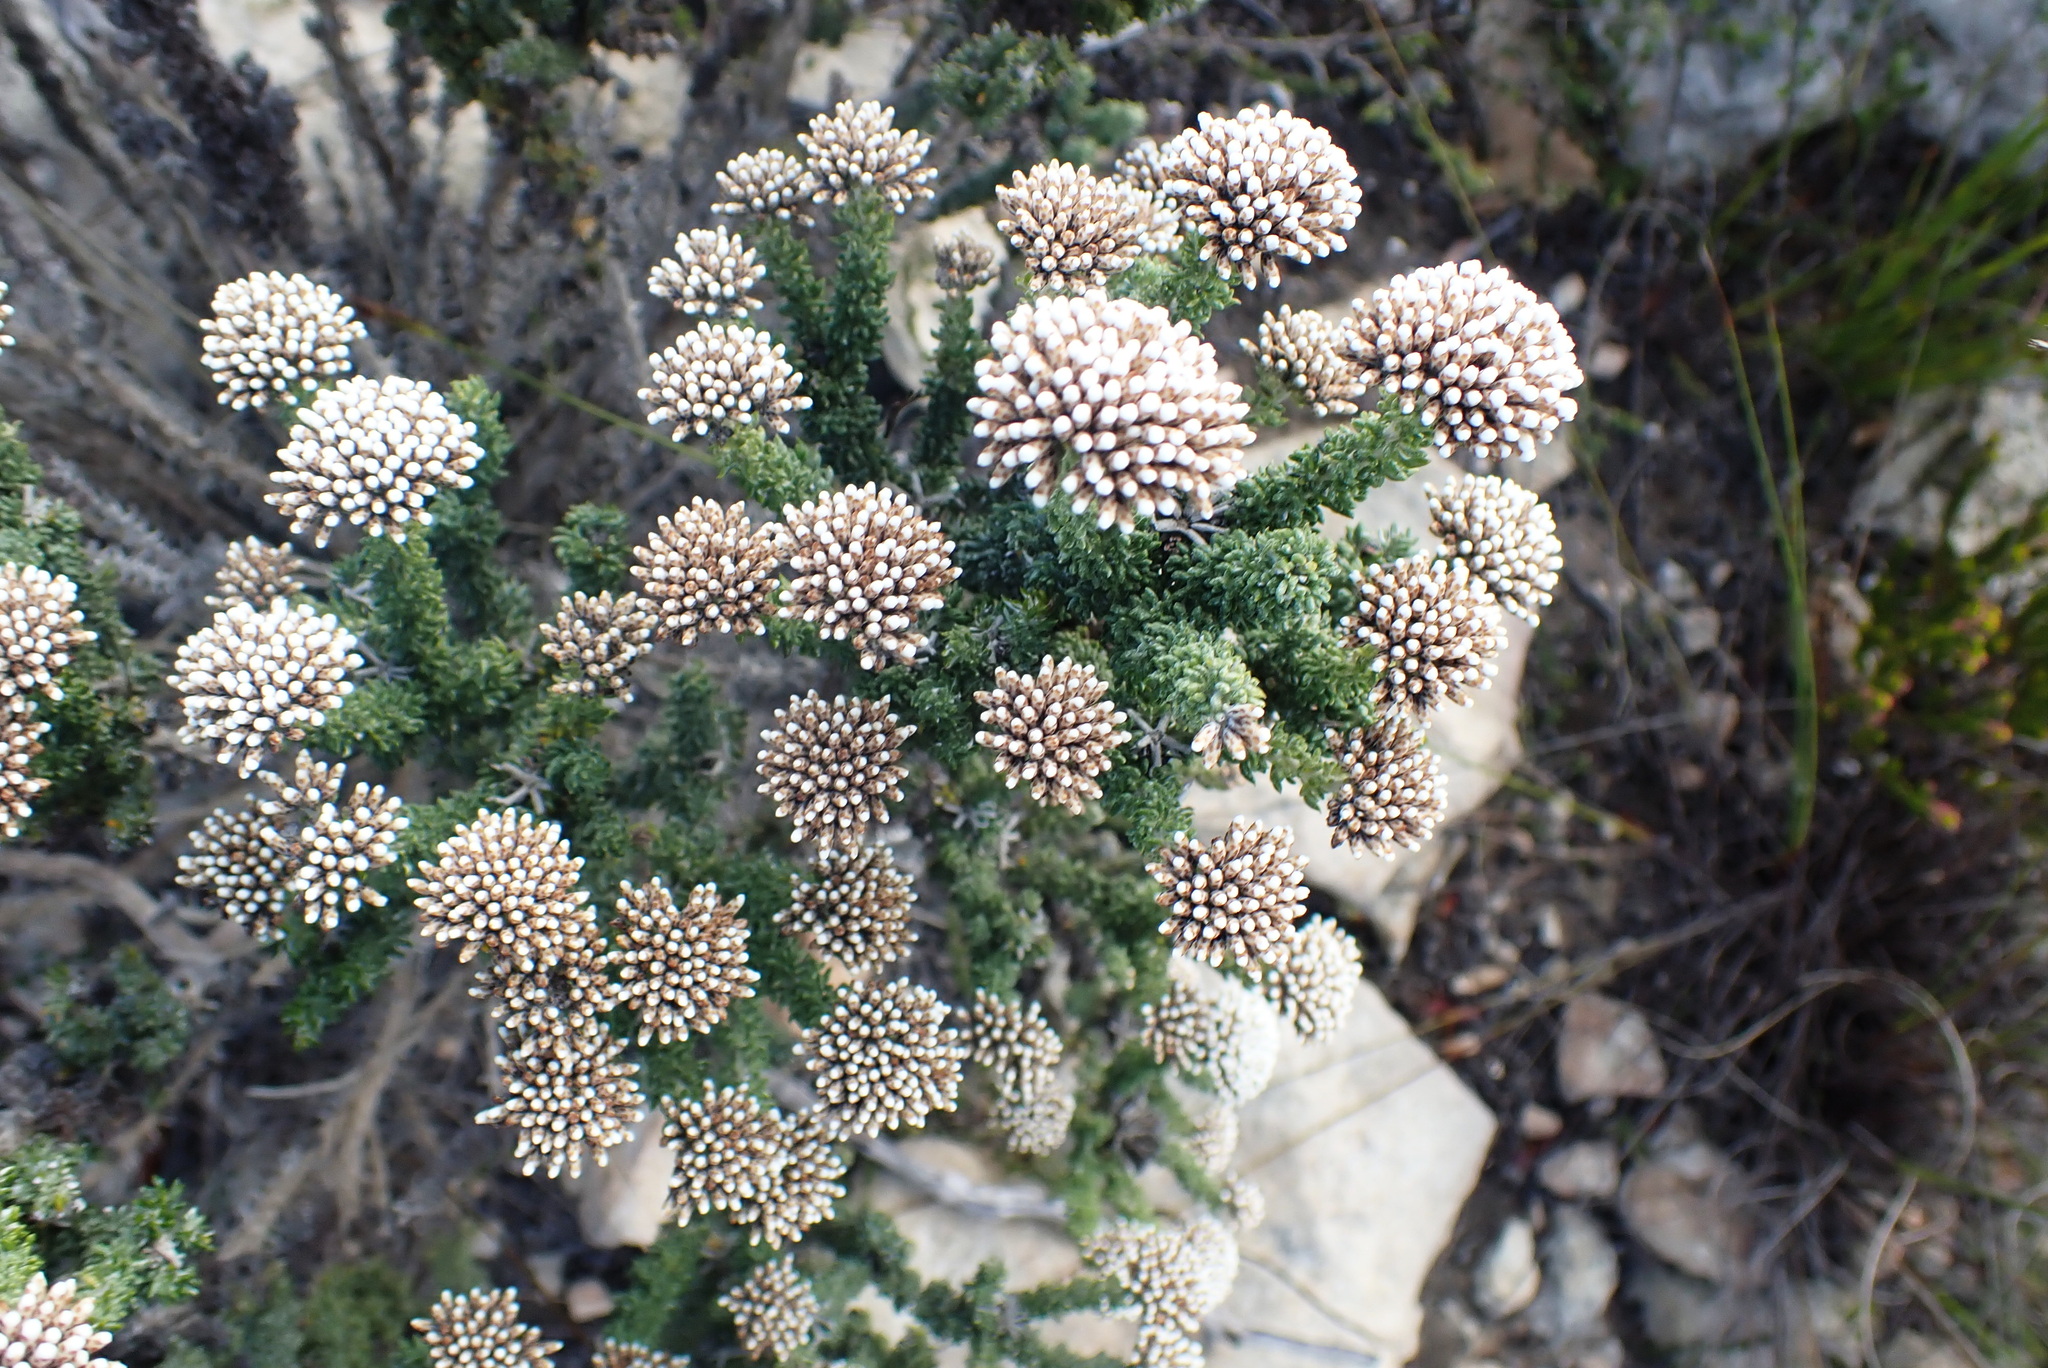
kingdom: Plantae
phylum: Tracheophyta
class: Magnoliopsida
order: Asterales
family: Asteraceae
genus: Metalasia
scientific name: Metalasia calcicola
